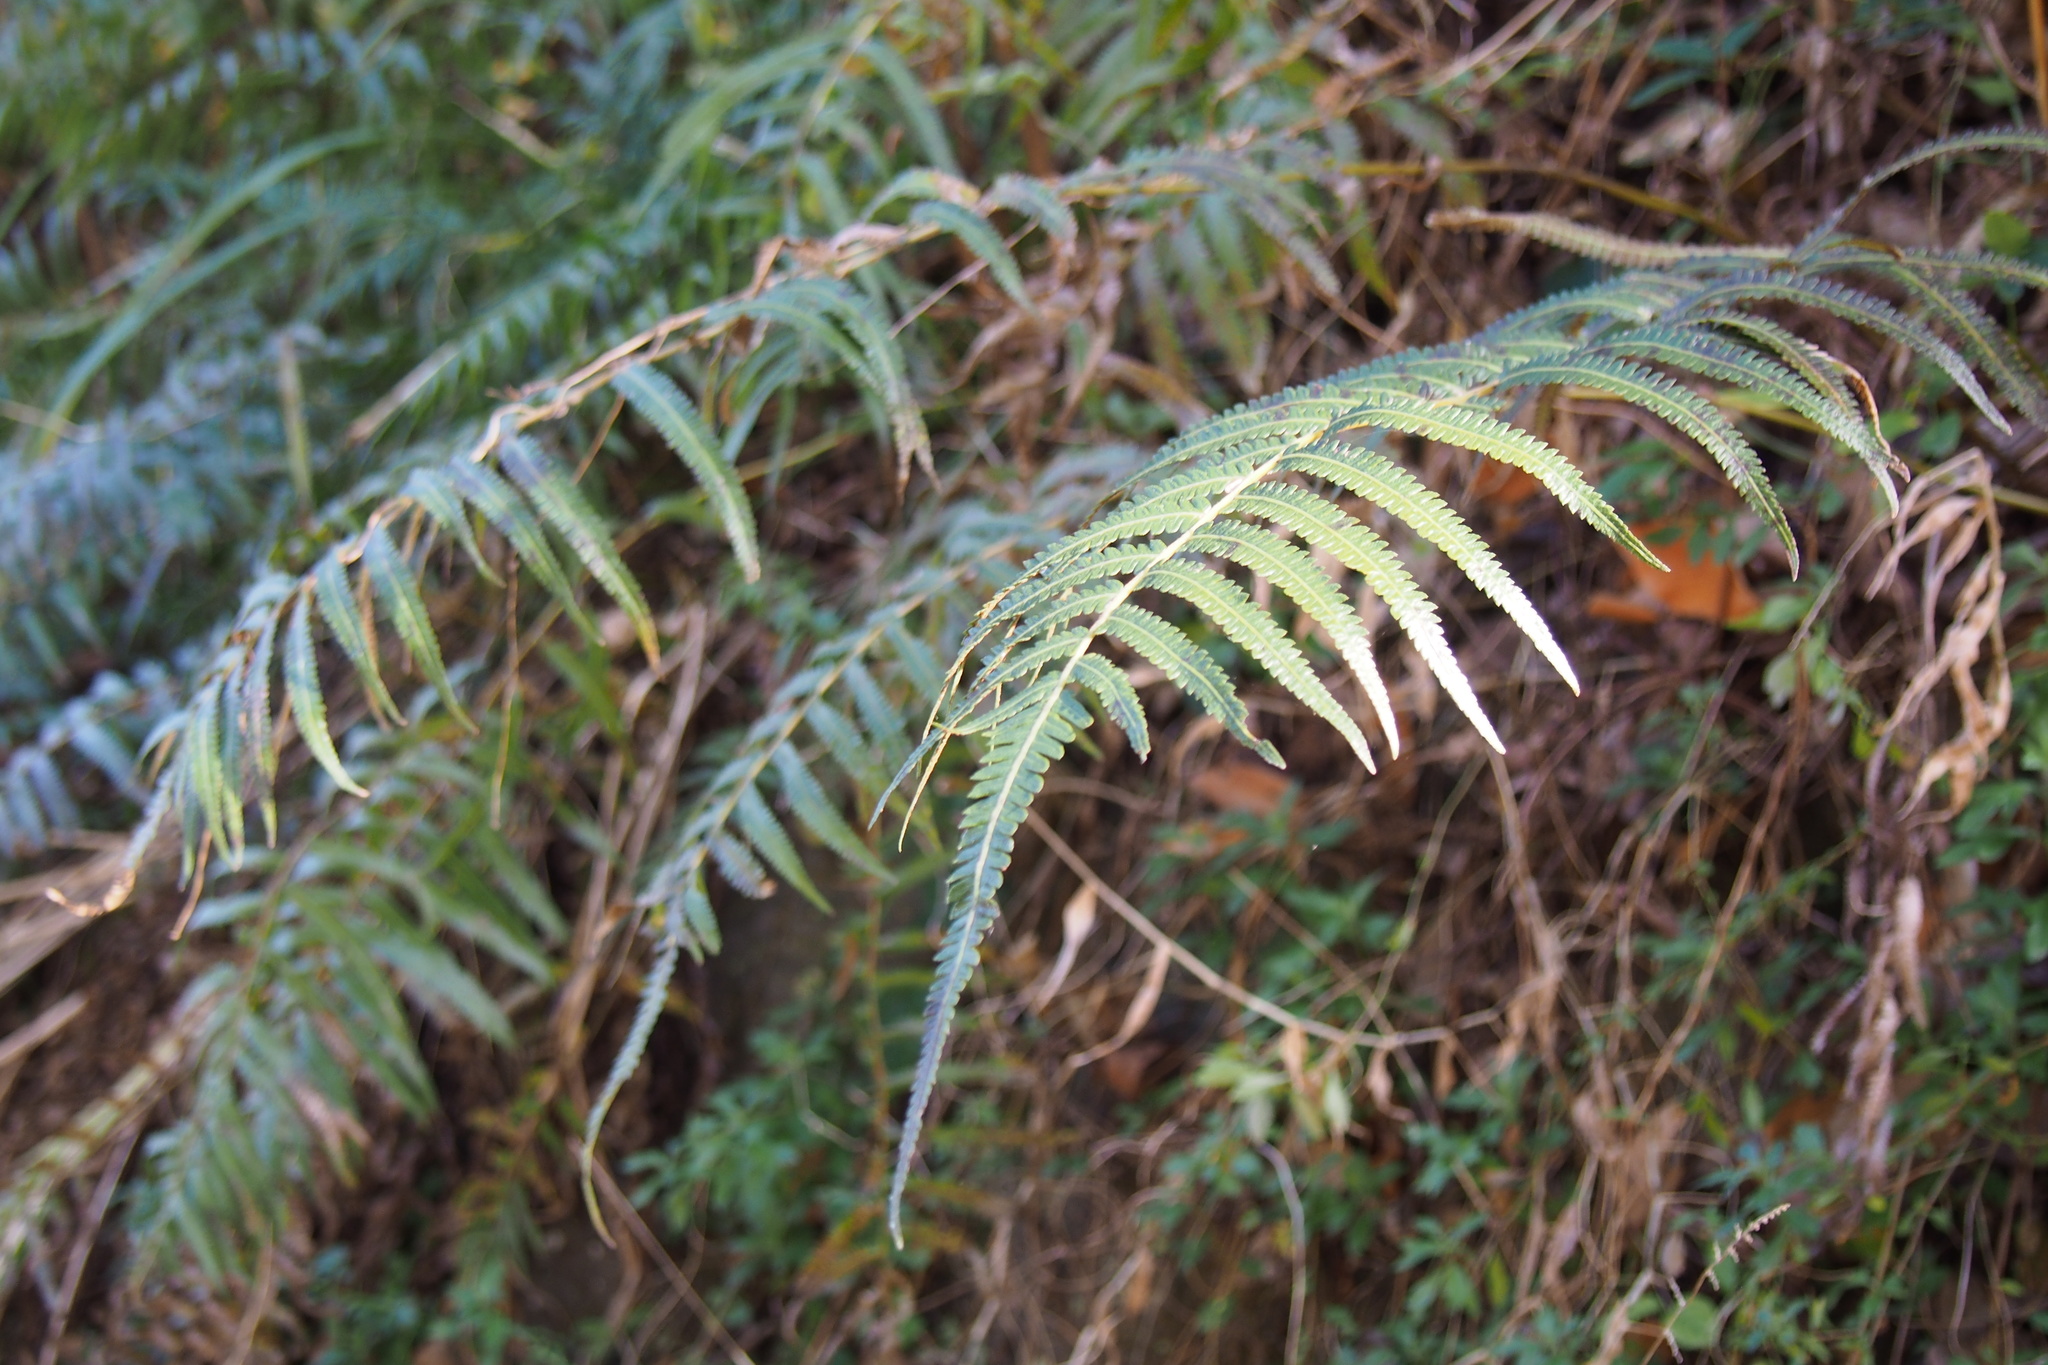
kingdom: Plantae
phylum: Tracheophyta
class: Polypodiopsida
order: Polypodiales
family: Thelypteridaceae
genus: Christella
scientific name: Christella acuminata
